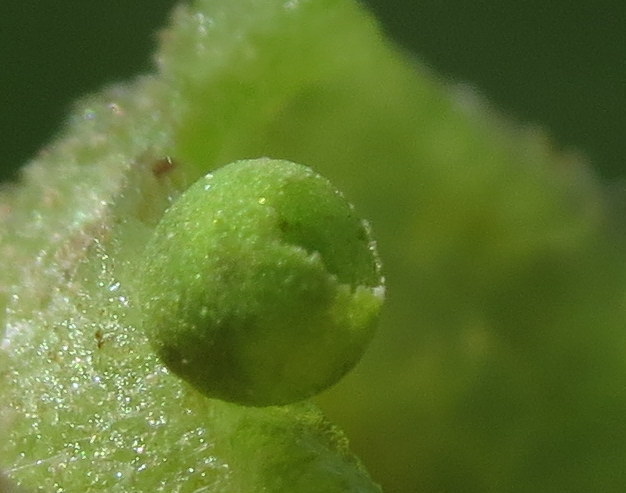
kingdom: Animalia
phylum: Arthropoda
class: Insecta
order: Hymenoptera
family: Cynipidae
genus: Dryocosmus
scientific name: Dryocosmus quercuspalustris
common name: Succulent oak gall wasp
